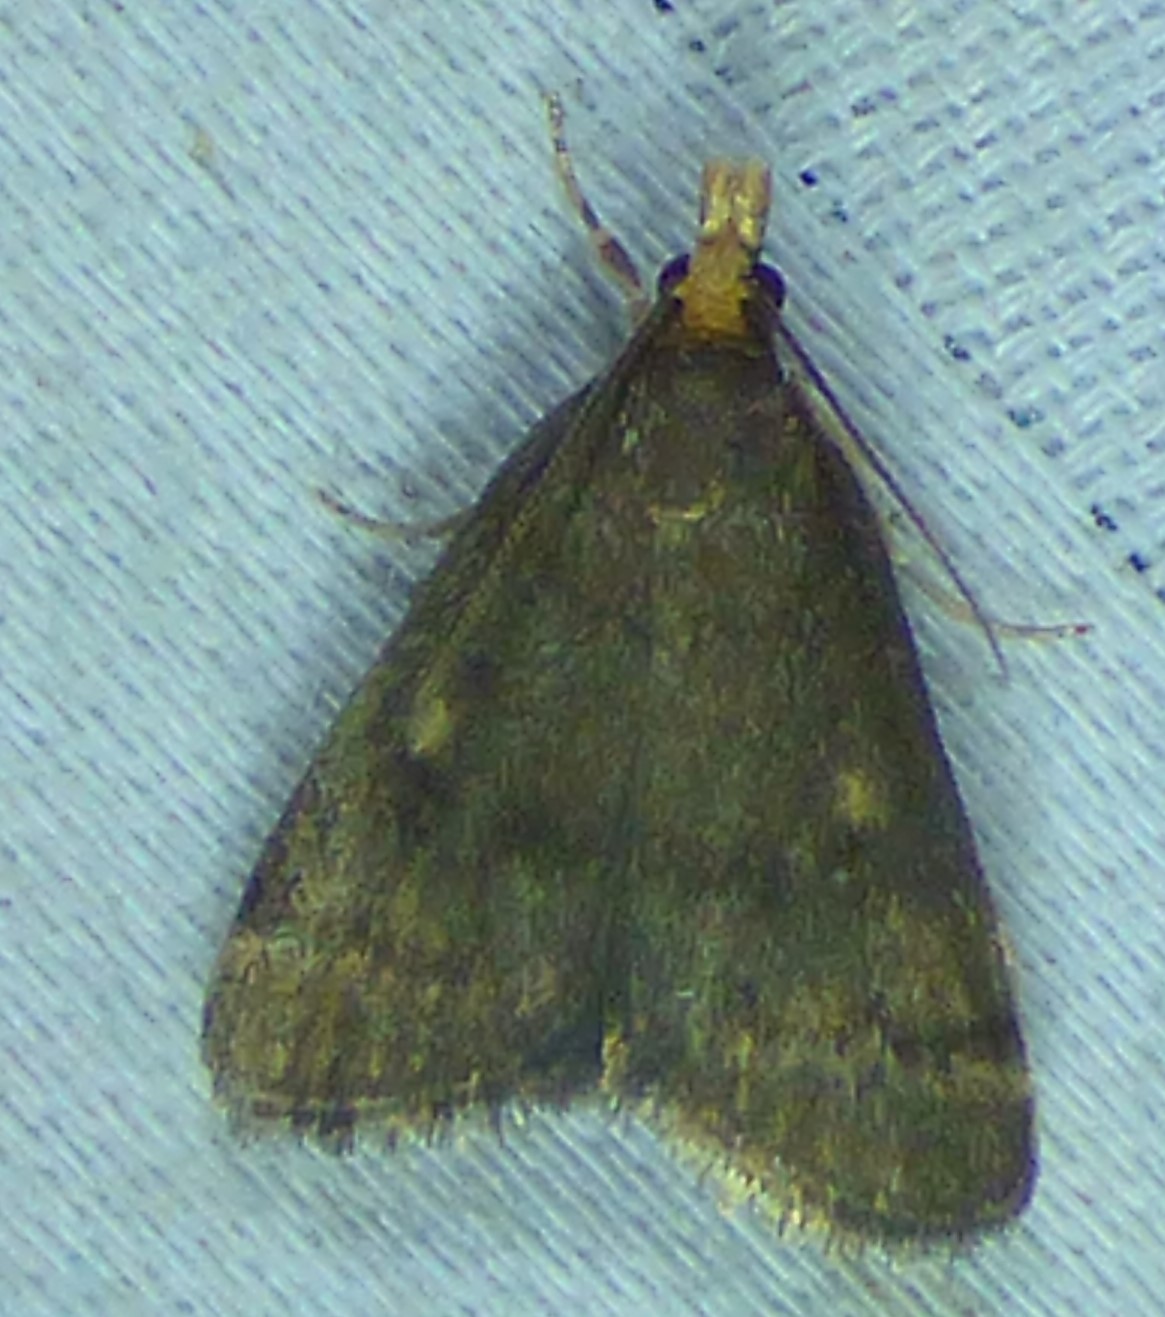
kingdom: Animalia
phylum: Arthropoda
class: Insecta
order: Lepidoptera
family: Crambidae
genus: Pyrausta
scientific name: Pyrausta merrickalis
